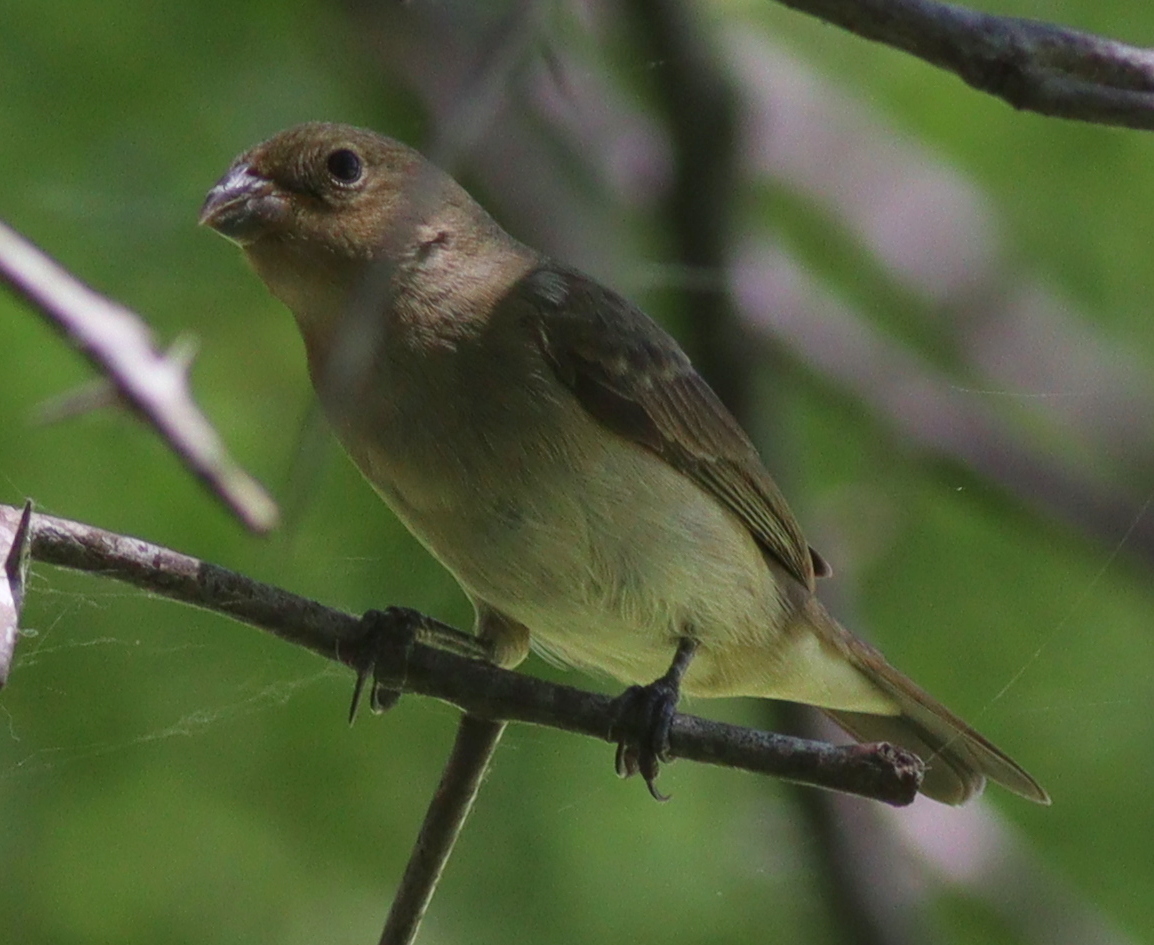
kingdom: Animalia
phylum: Chordata
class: Aves
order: Passeriformes
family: Thraupidae
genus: Sporophila
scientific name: Sporophila caerulescens
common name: Double-collared seedeater
